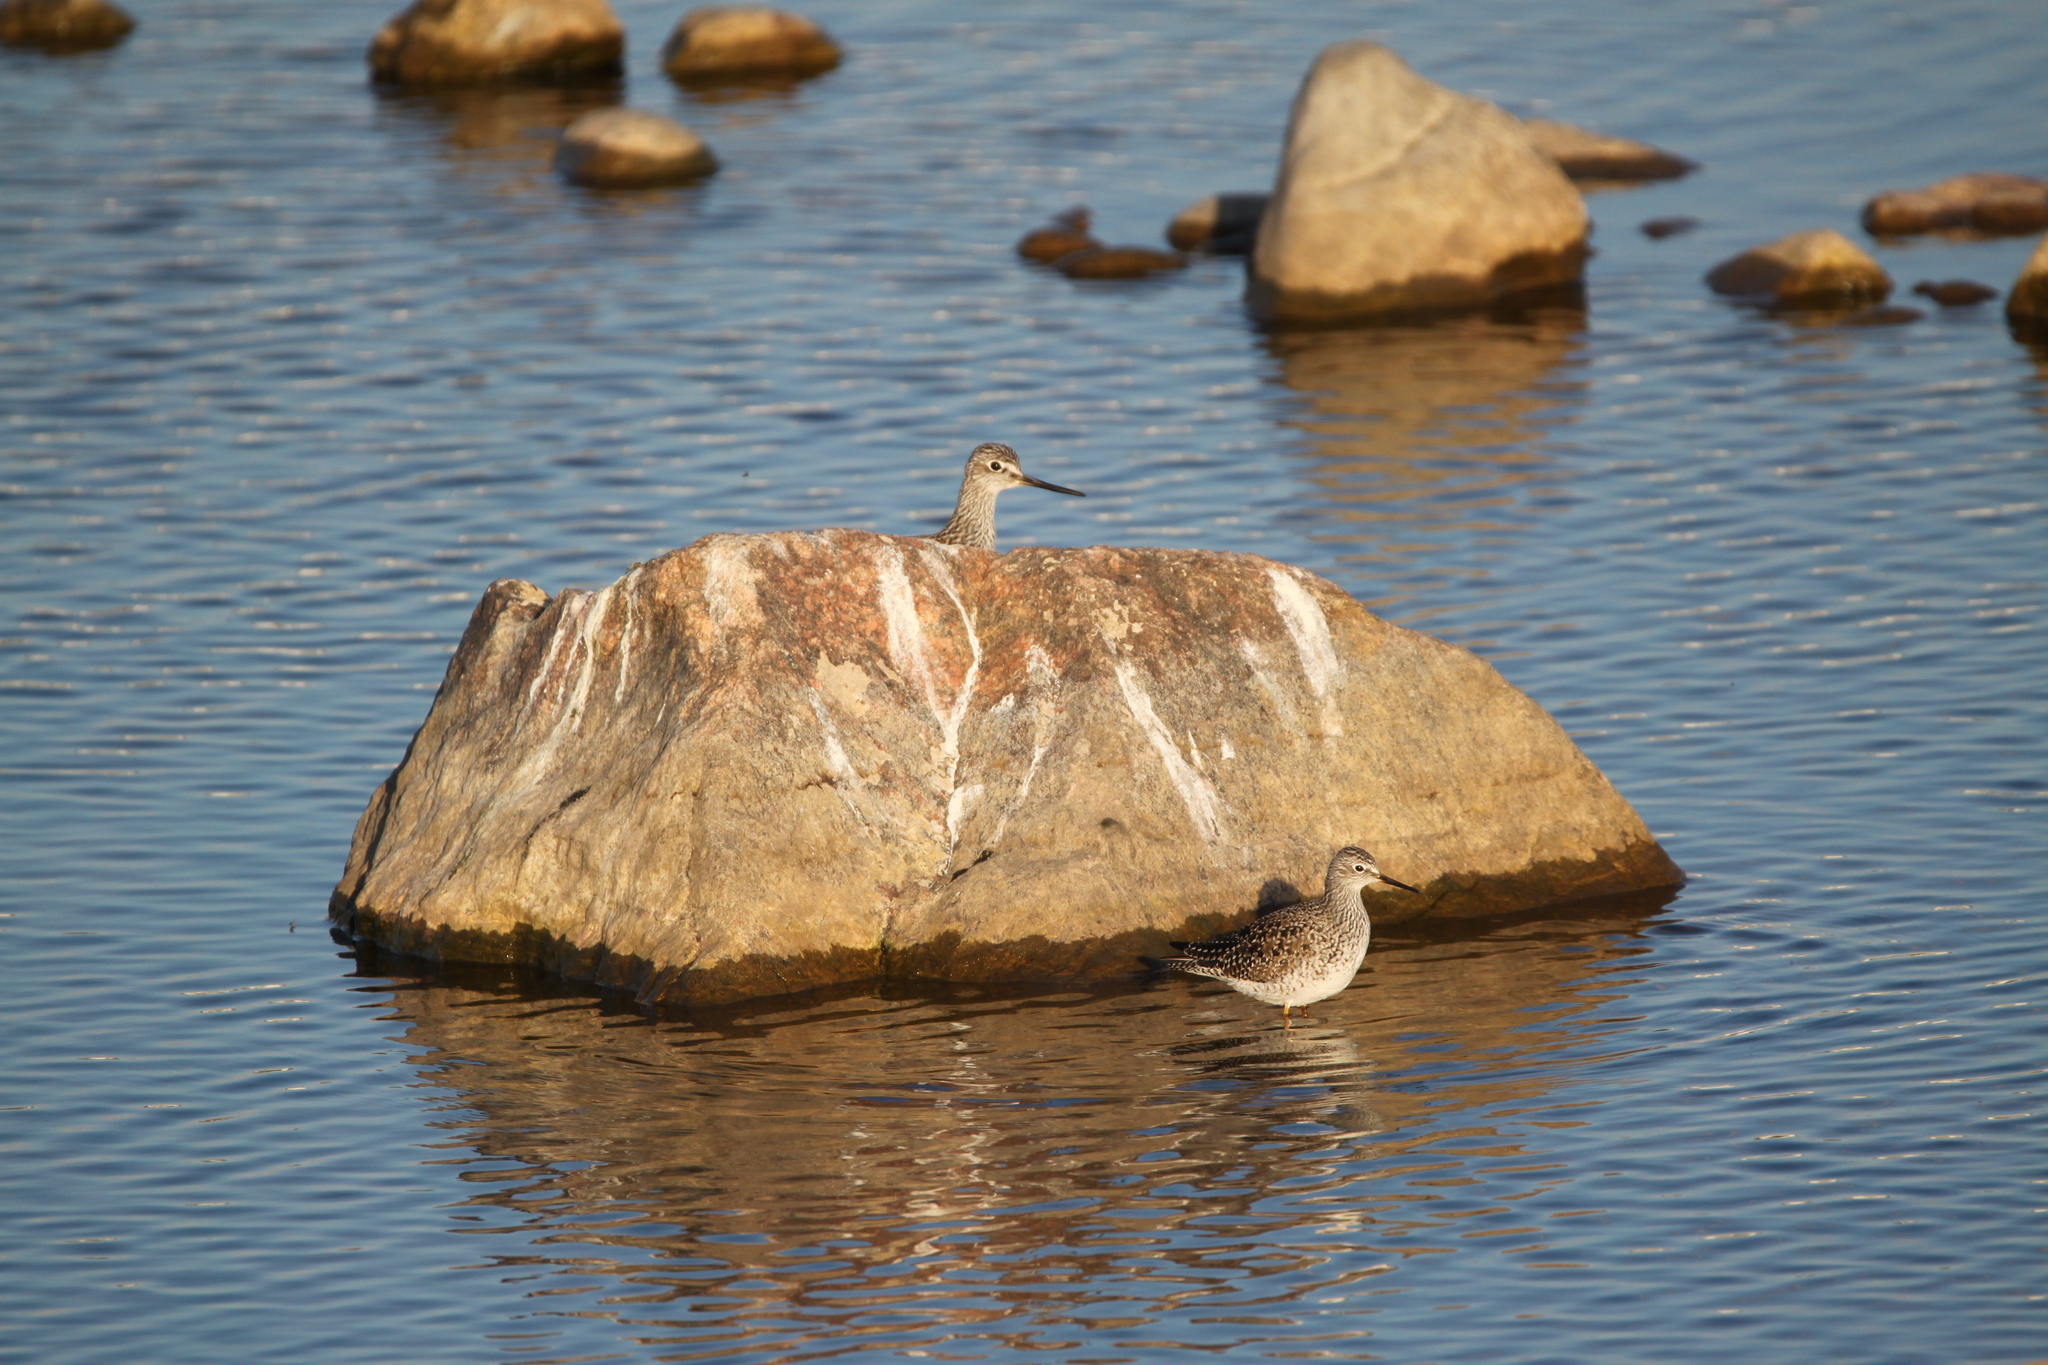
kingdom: Animalia
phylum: Chordata
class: Aves
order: Charadriiformes
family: Scolopacidae
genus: Tringa
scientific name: Tringa melanoleuca
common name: Greater yellowlegs
